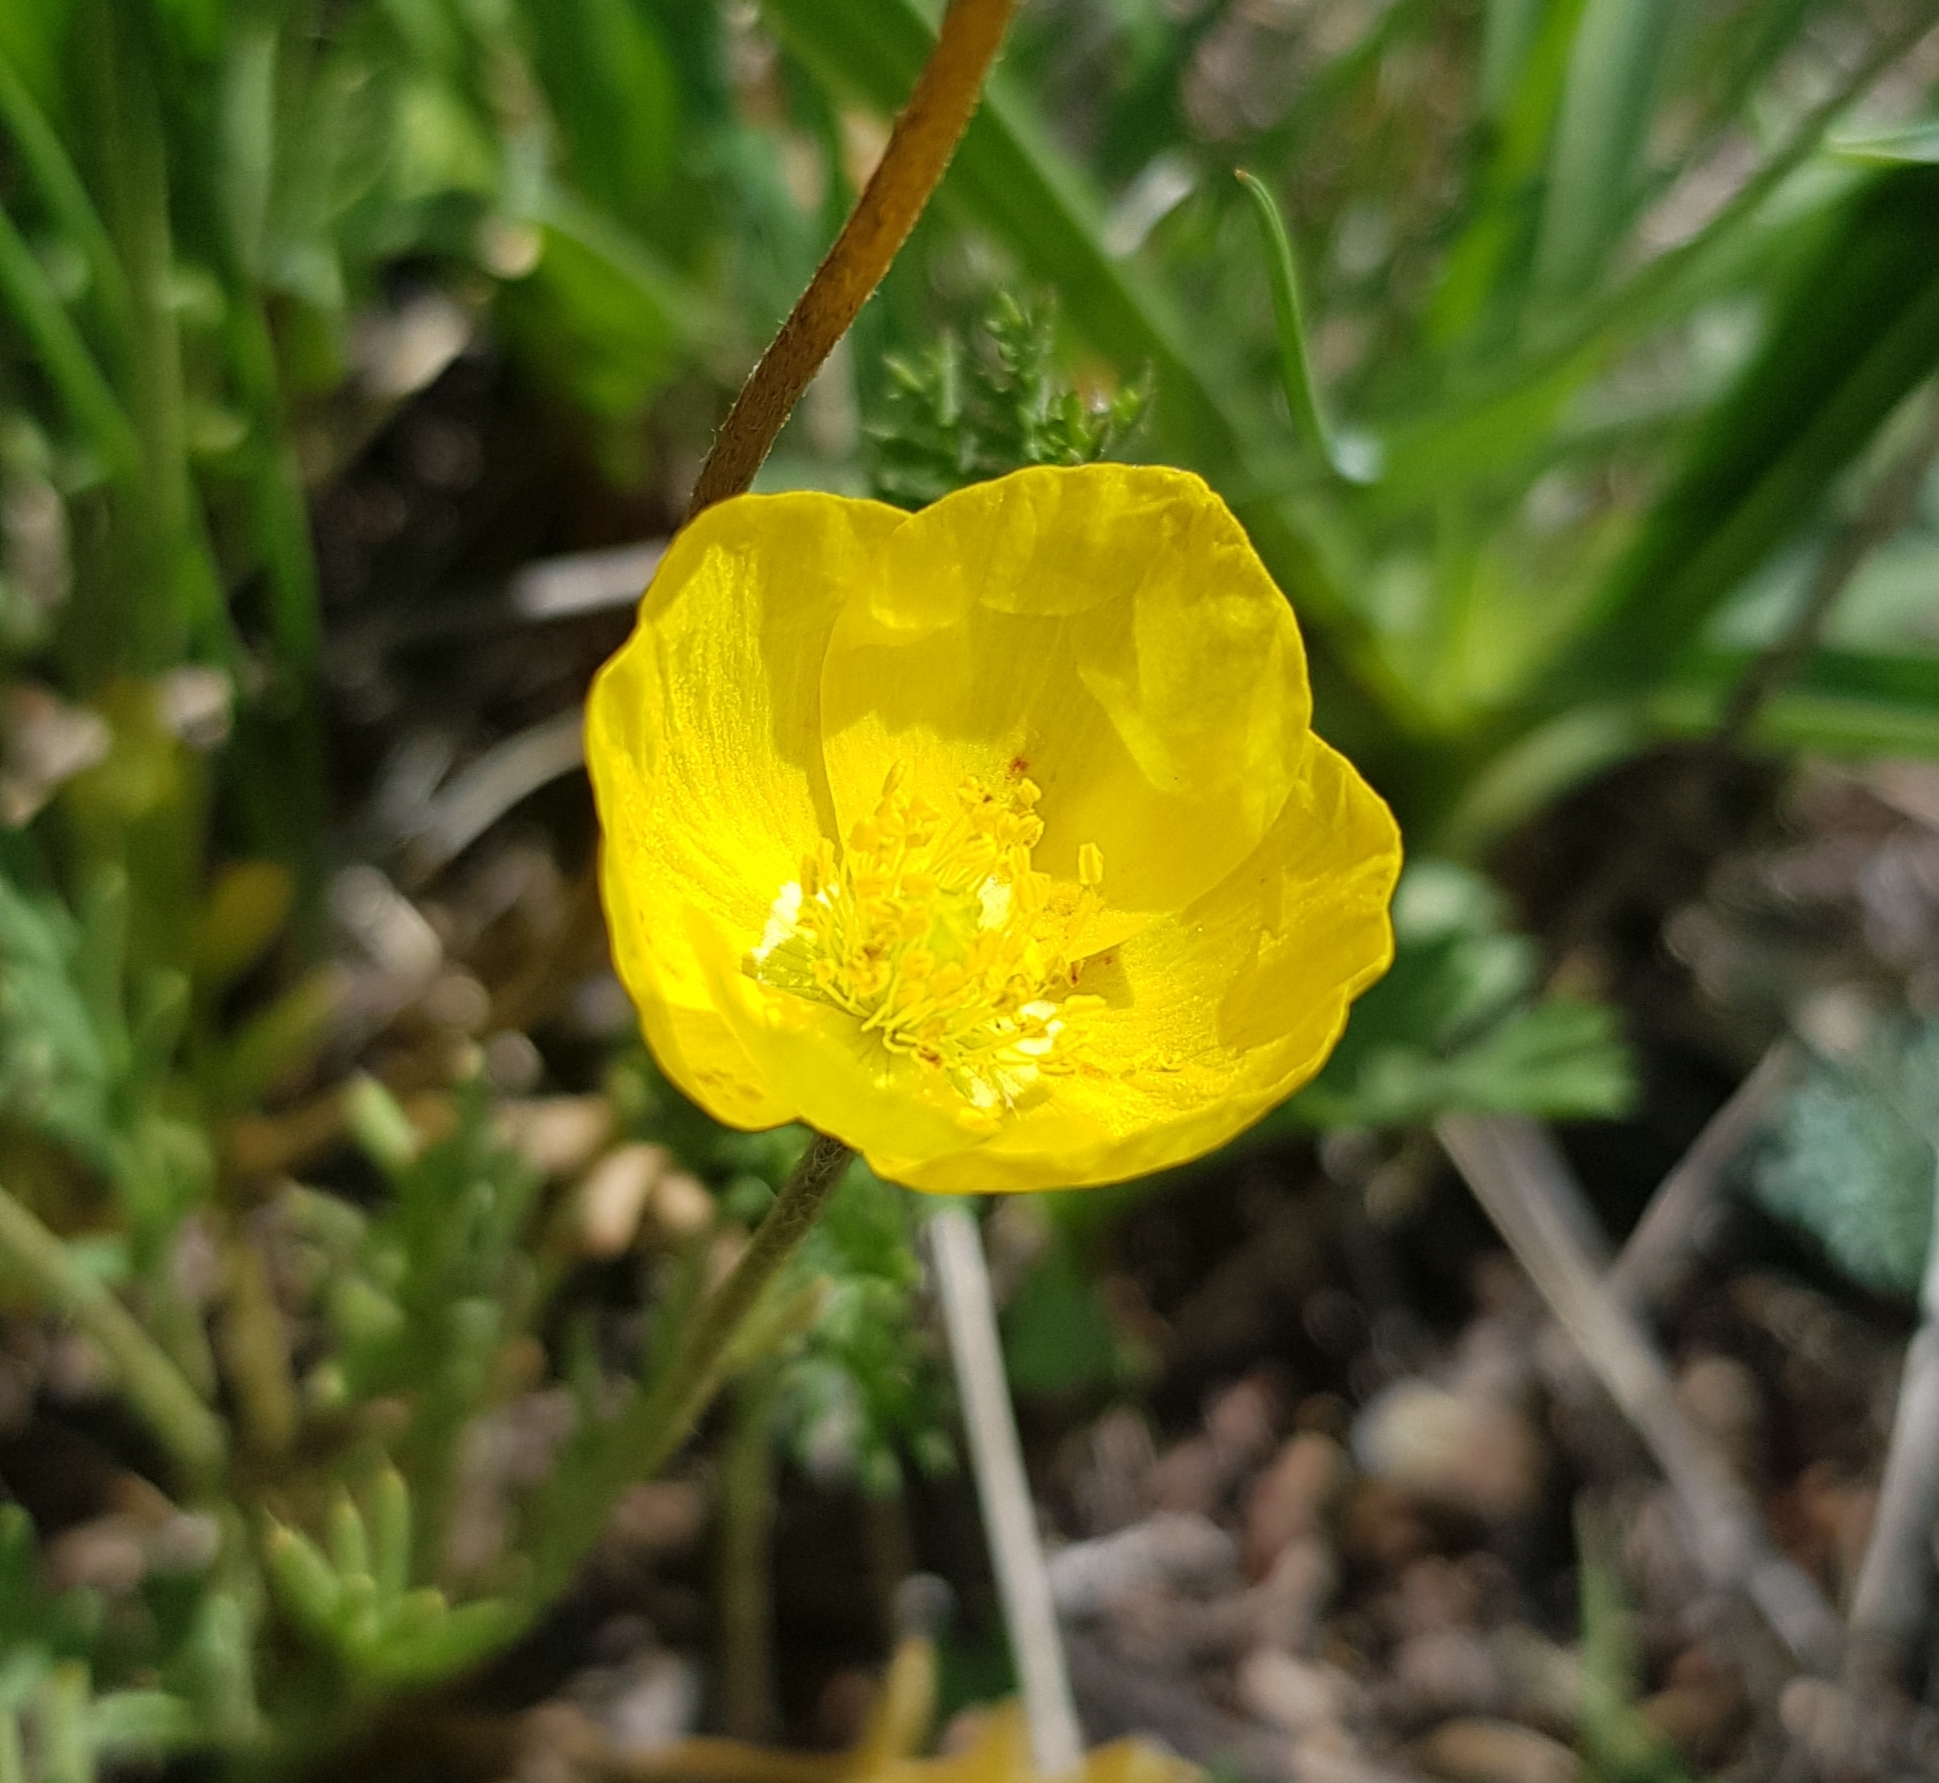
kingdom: Plantae
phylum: Tracheophyta
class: Magnoliopsida
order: Ranunculales
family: Papaveraceae
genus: Papaver
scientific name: Papaver nudicaule
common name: Arctic poppy
